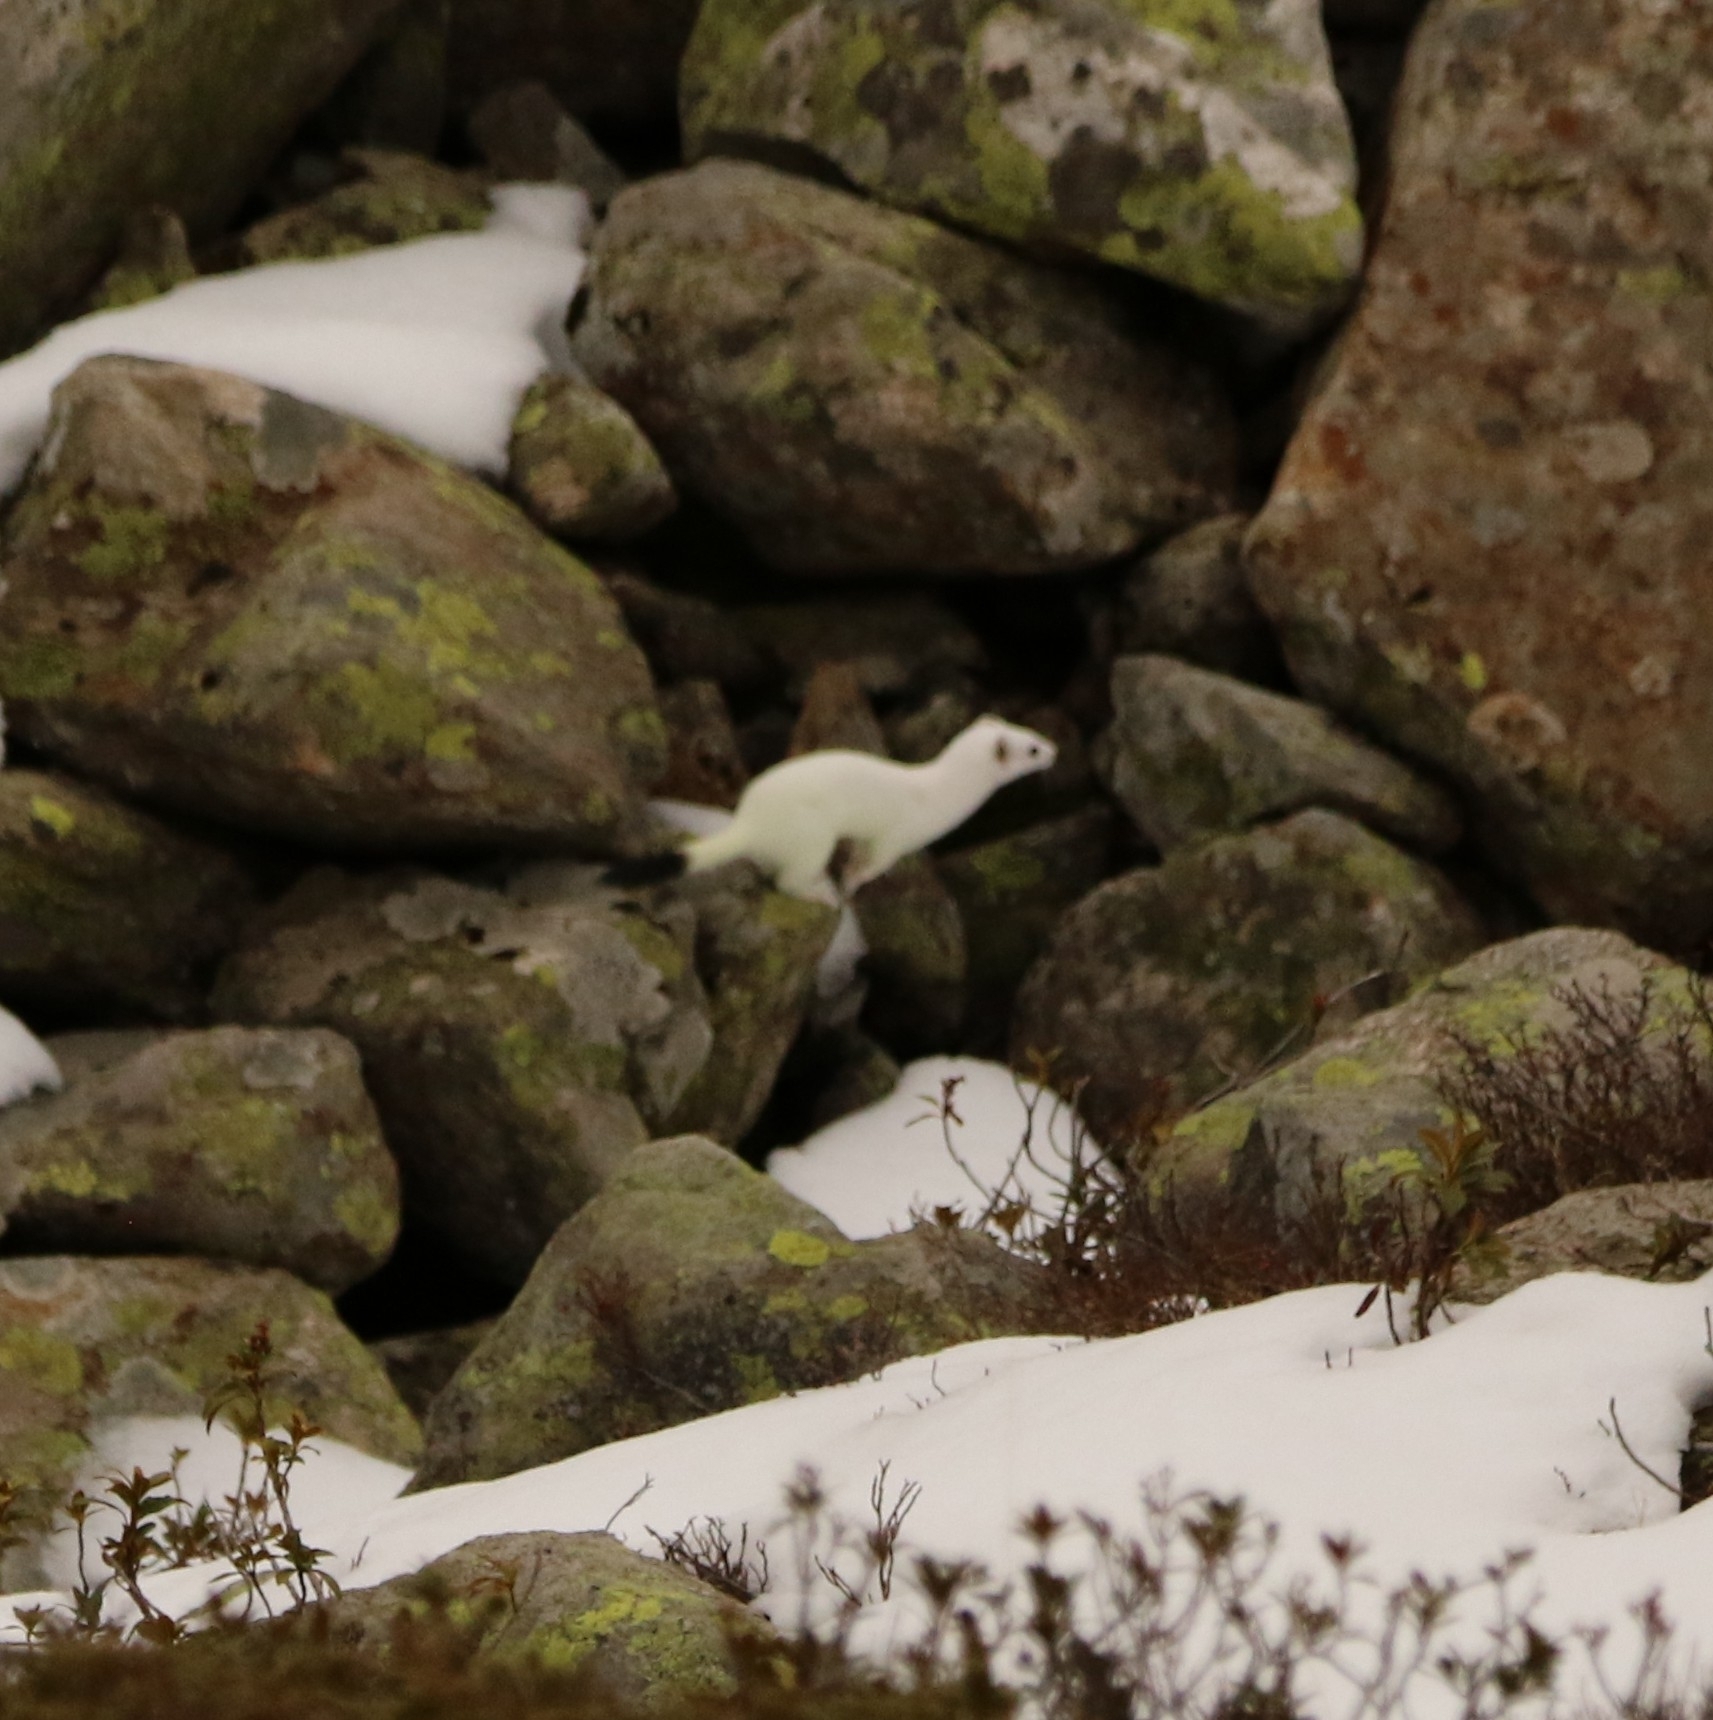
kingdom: Animalia
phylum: Chordata
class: Mammalia
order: Carnivora
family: Mustelidae
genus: Mustela
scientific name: Mustela erminea
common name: Stoat
